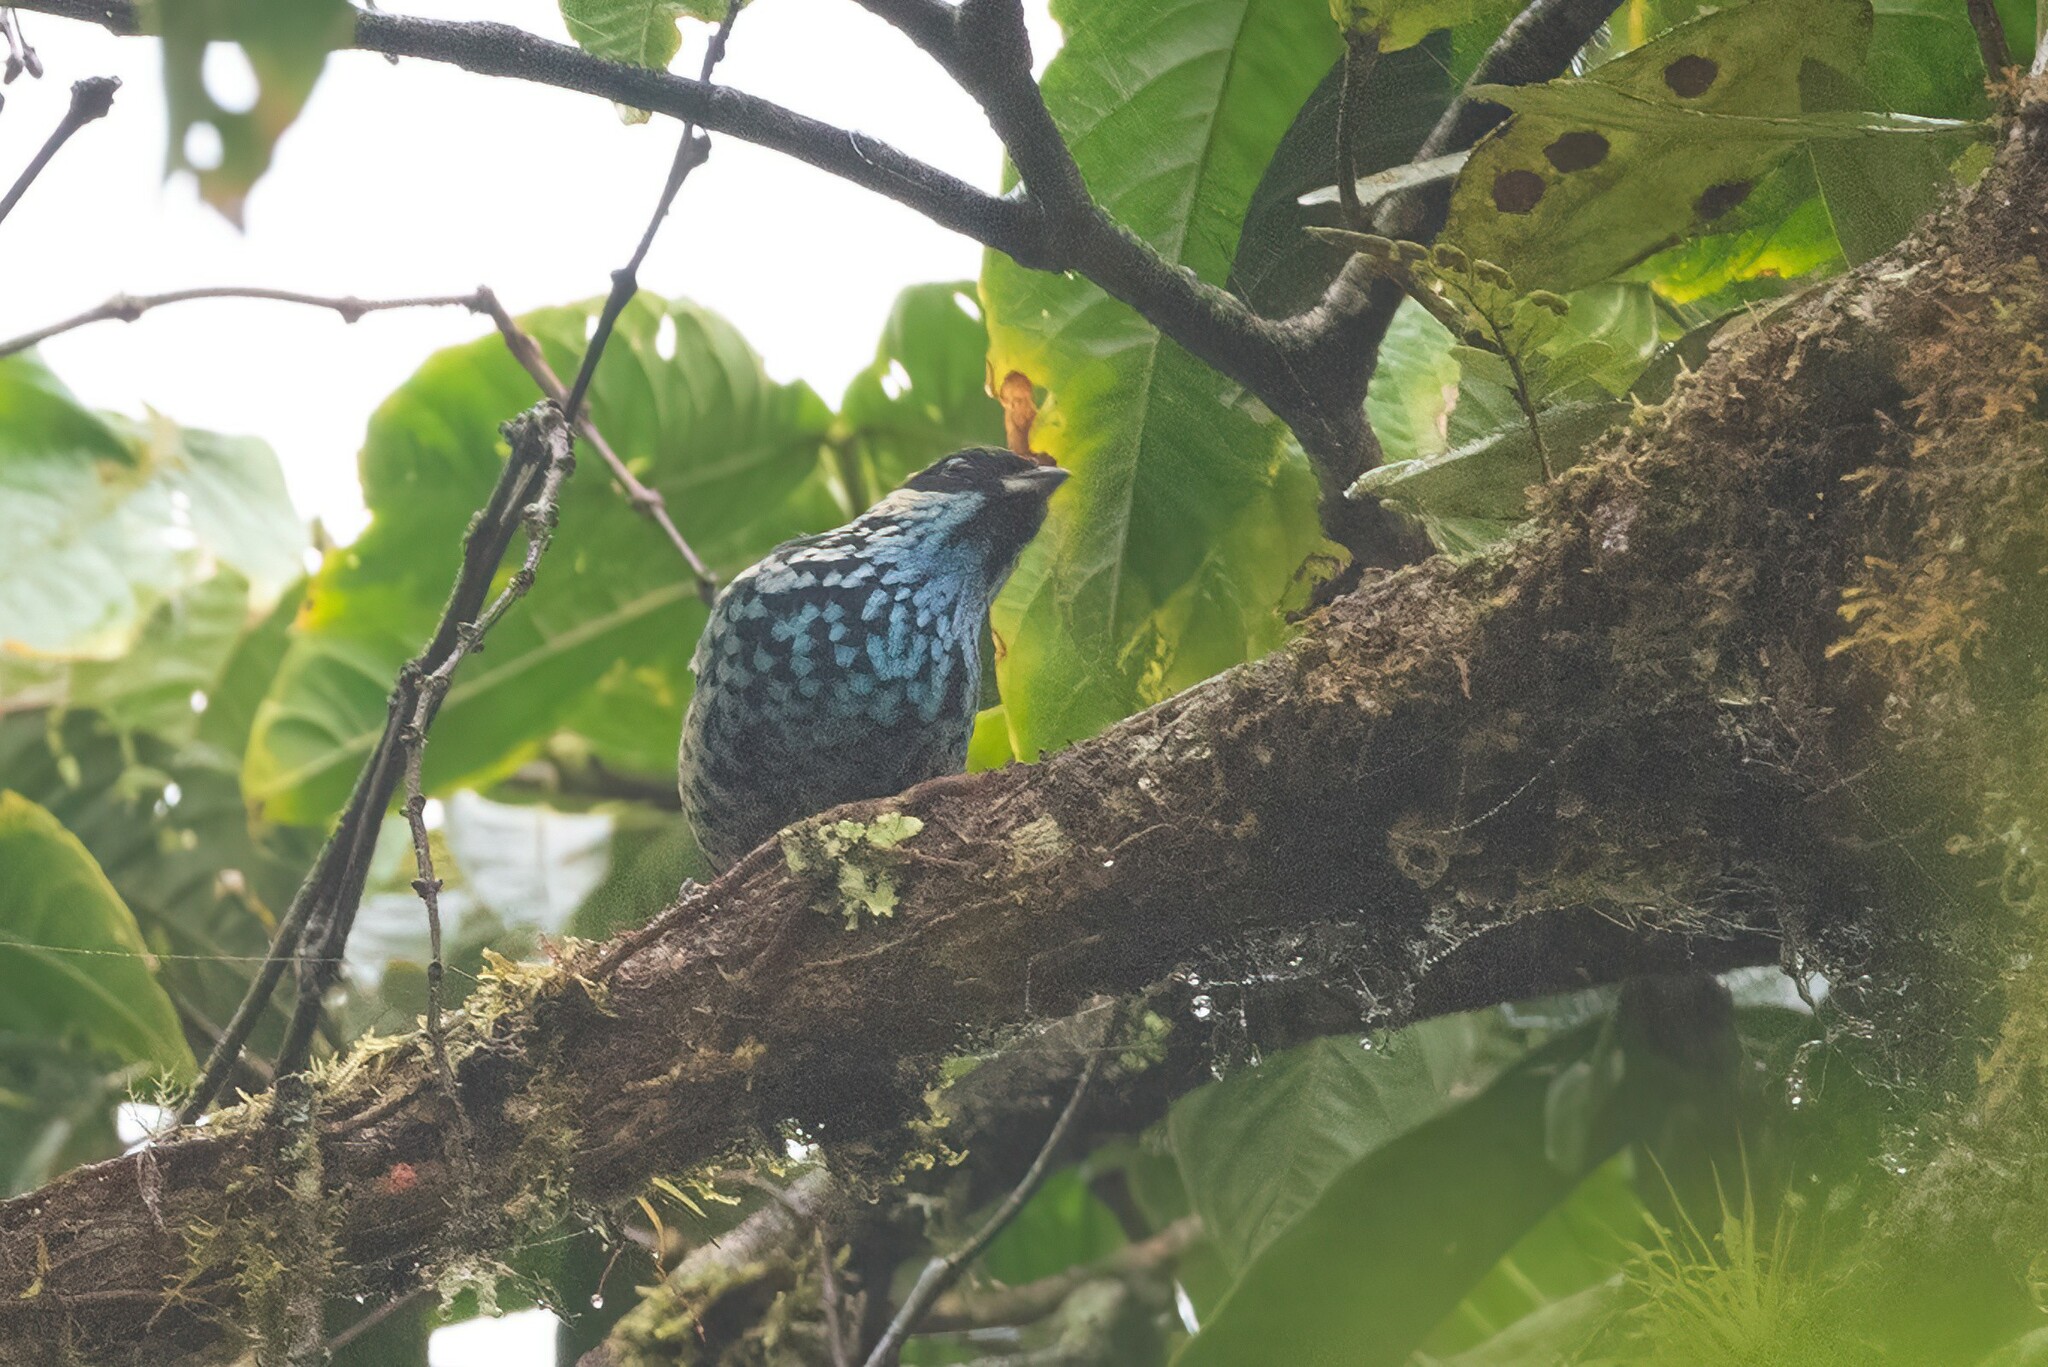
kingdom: Animalia
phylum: Chordata
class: Aves
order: Passeriformes
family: Thraupidae
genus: Tangara
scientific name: Tangara nigroviridis
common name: Beryl-spangled tanager
